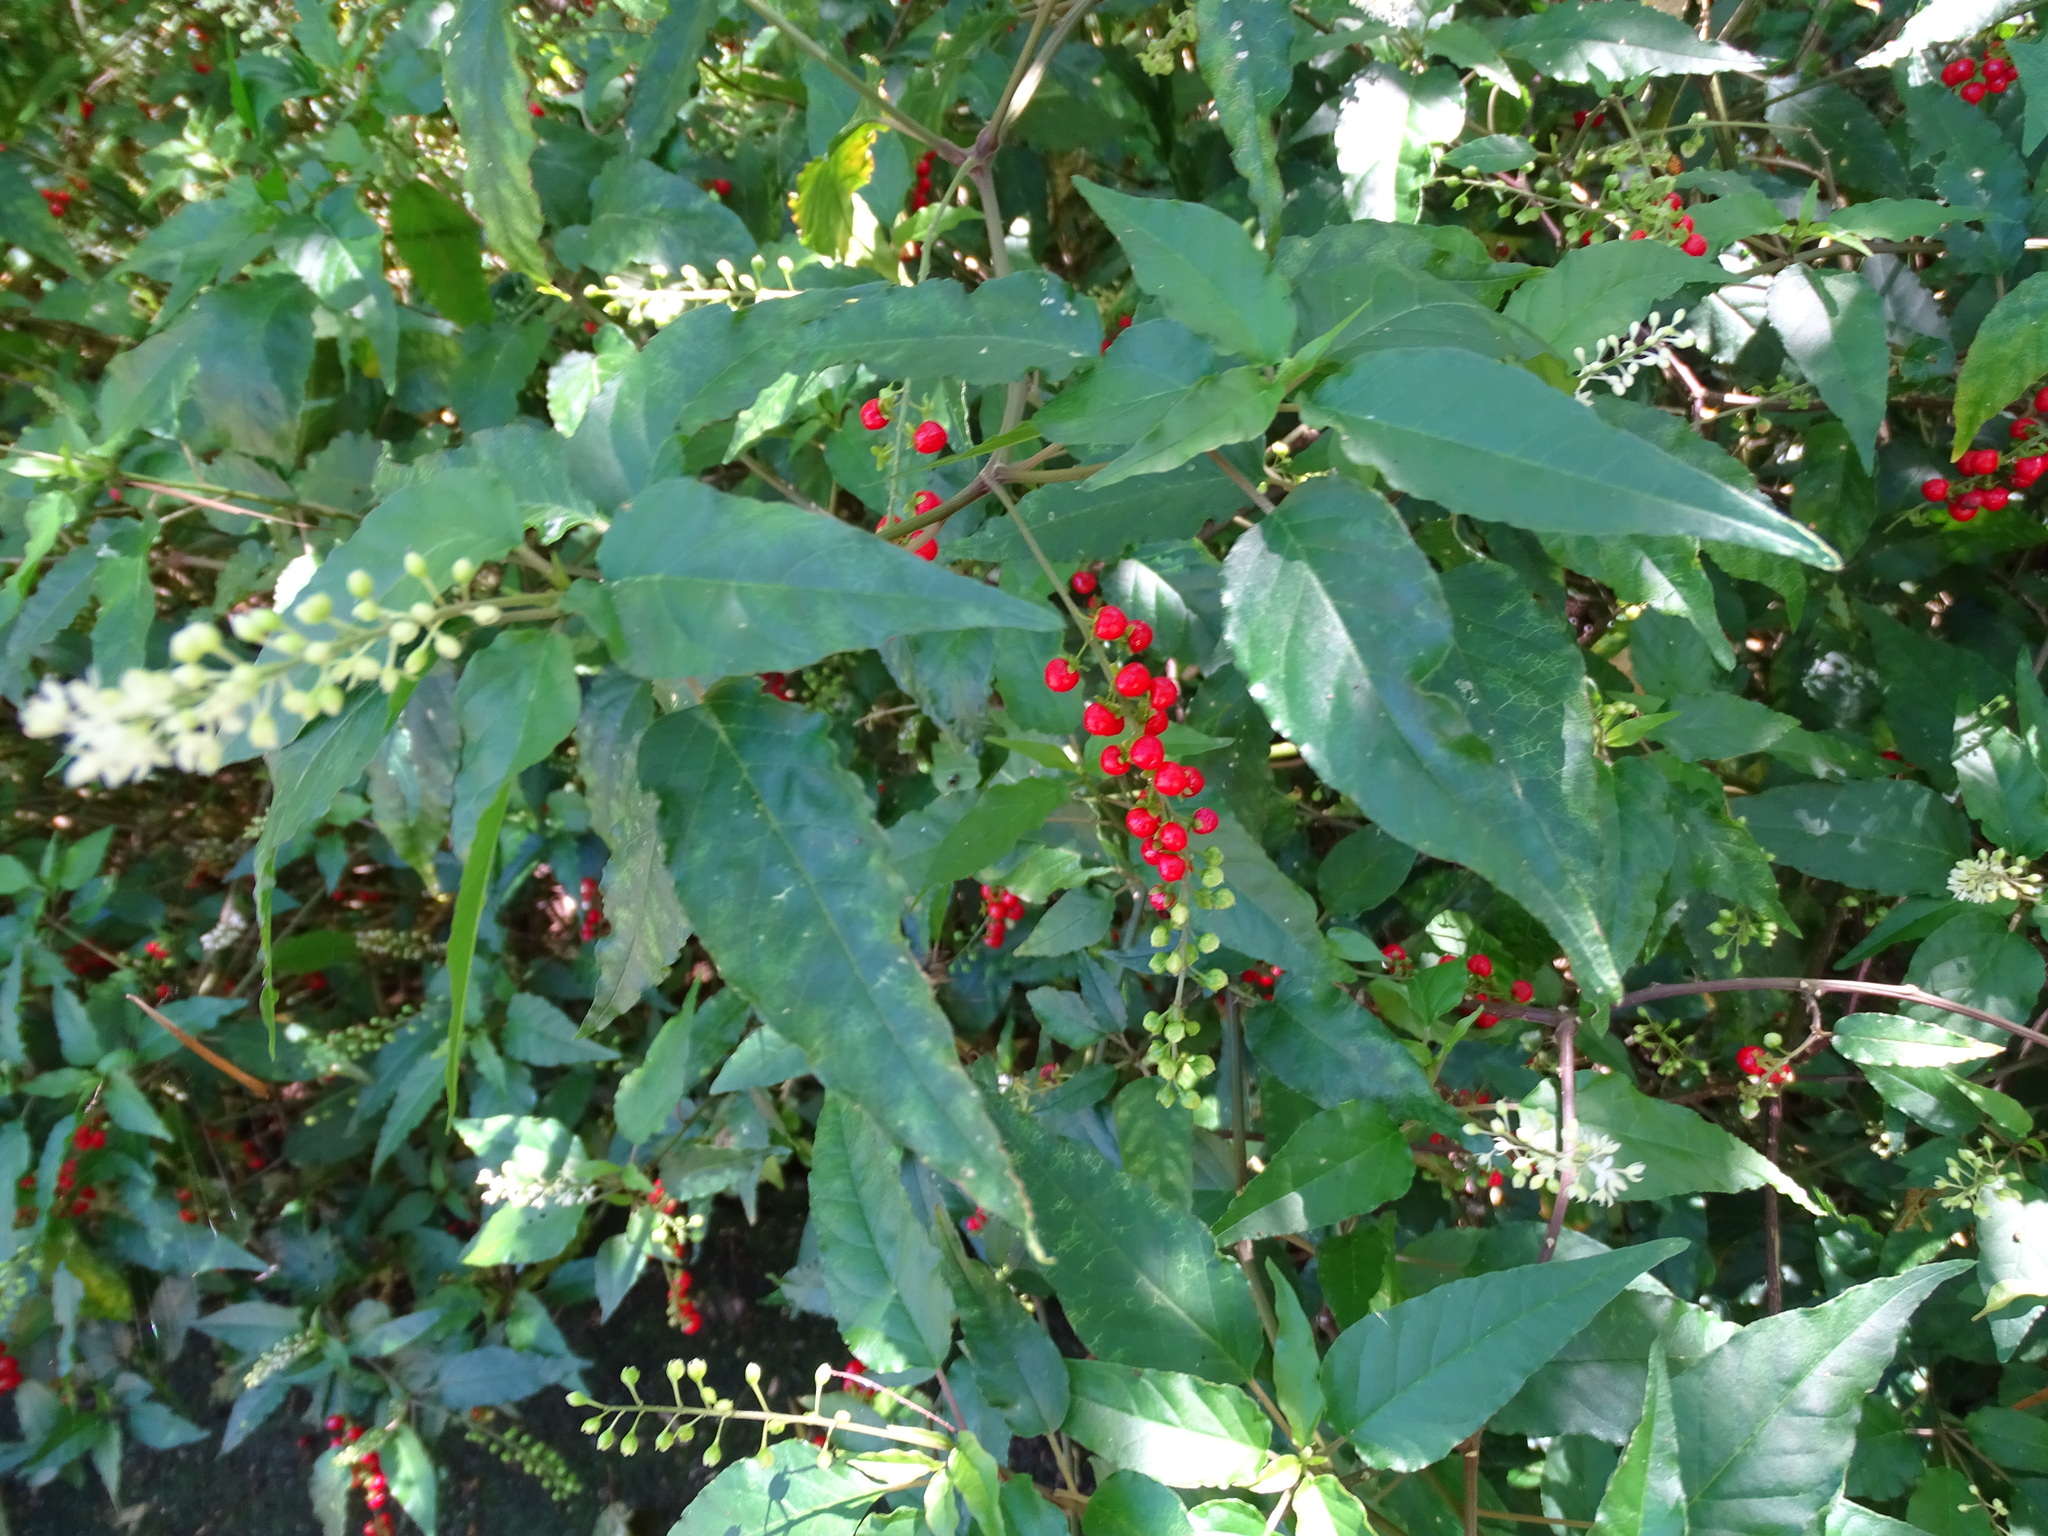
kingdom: Plantae
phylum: Tracheophyta
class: Magnoliopsida
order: Caryophyllales
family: Phytolaccaceae
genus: Rivina
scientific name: Rivina humilis
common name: Rougeplant
